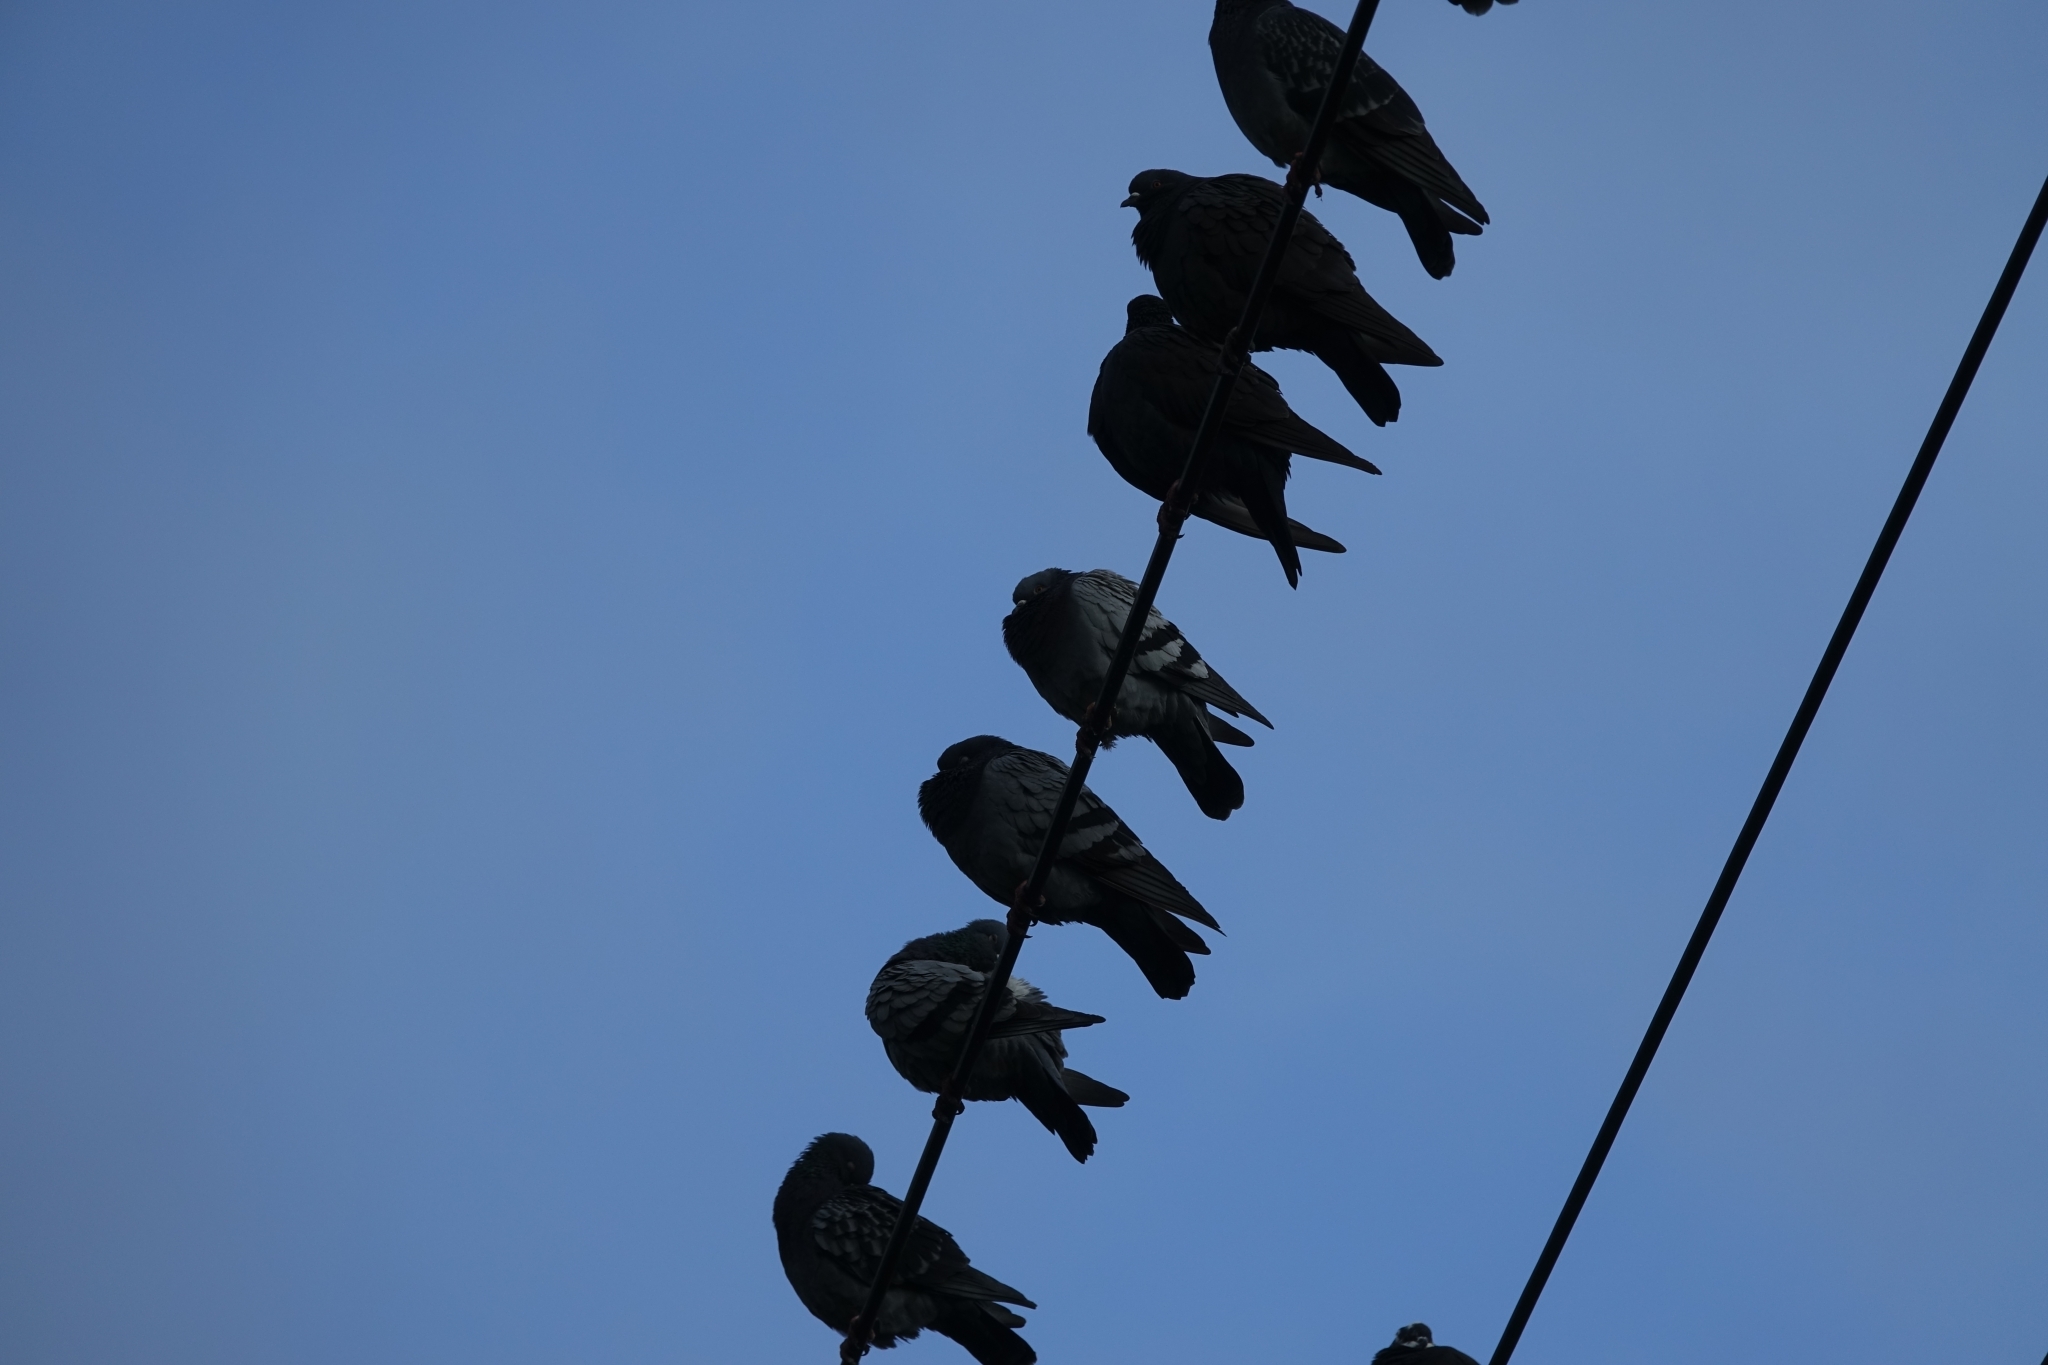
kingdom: Animalia
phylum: Chordata
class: Aves
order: Columbiformes
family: Columbidae
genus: Columba
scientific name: Columba livia
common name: Rock pigeon
